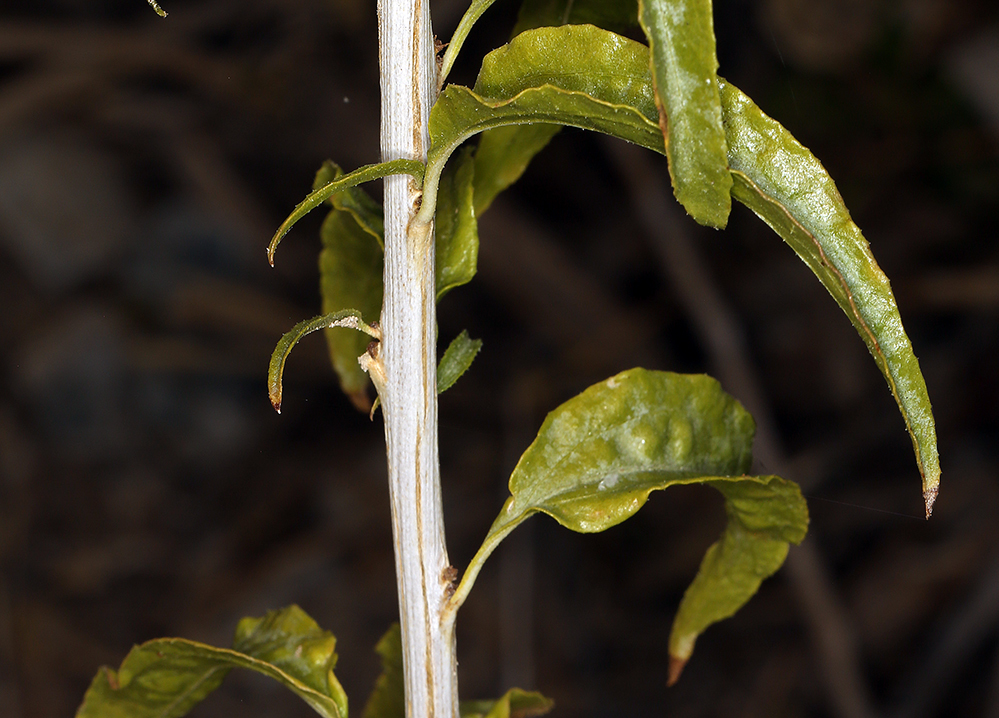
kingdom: Plantae
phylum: Tracheophyta
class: Magnoliopsida
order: Asterales
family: Asteraceae
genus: Brickellia
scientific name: Brickellia longifolia
